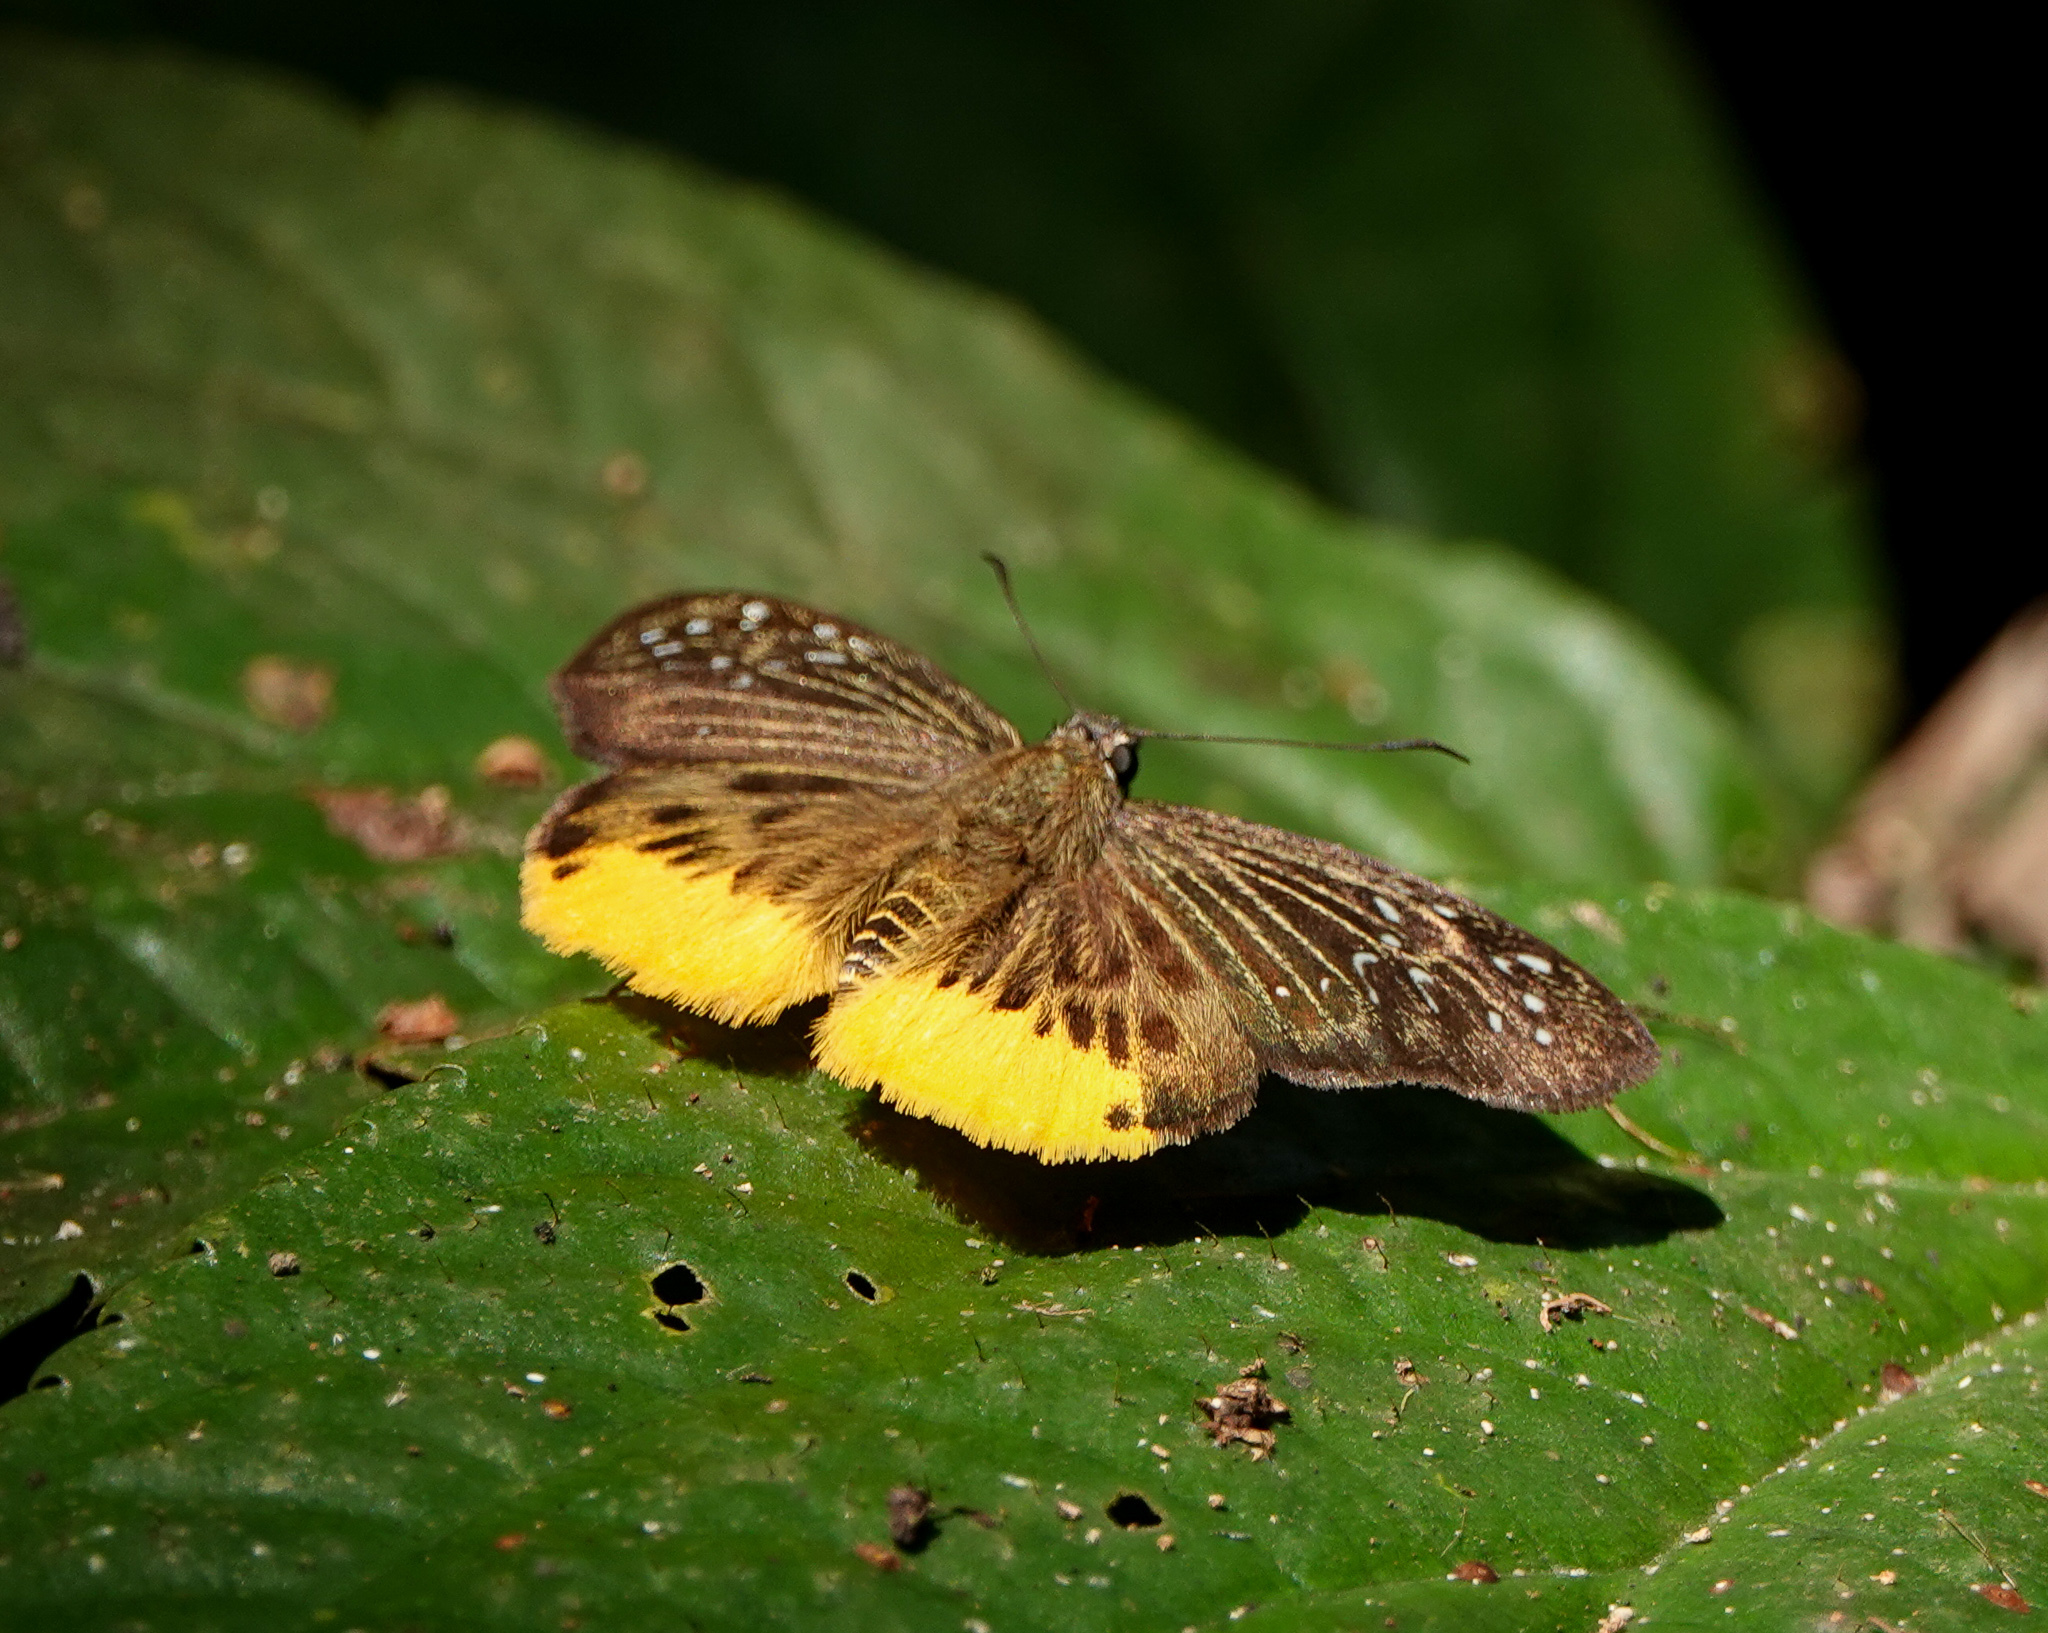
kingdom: Animalia
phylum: Arthropoda
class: Insecta
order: Lepidoptera
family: Hesperiidae
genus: Mooreana
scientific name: Mooreana trichoneura
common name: Yellow flat
